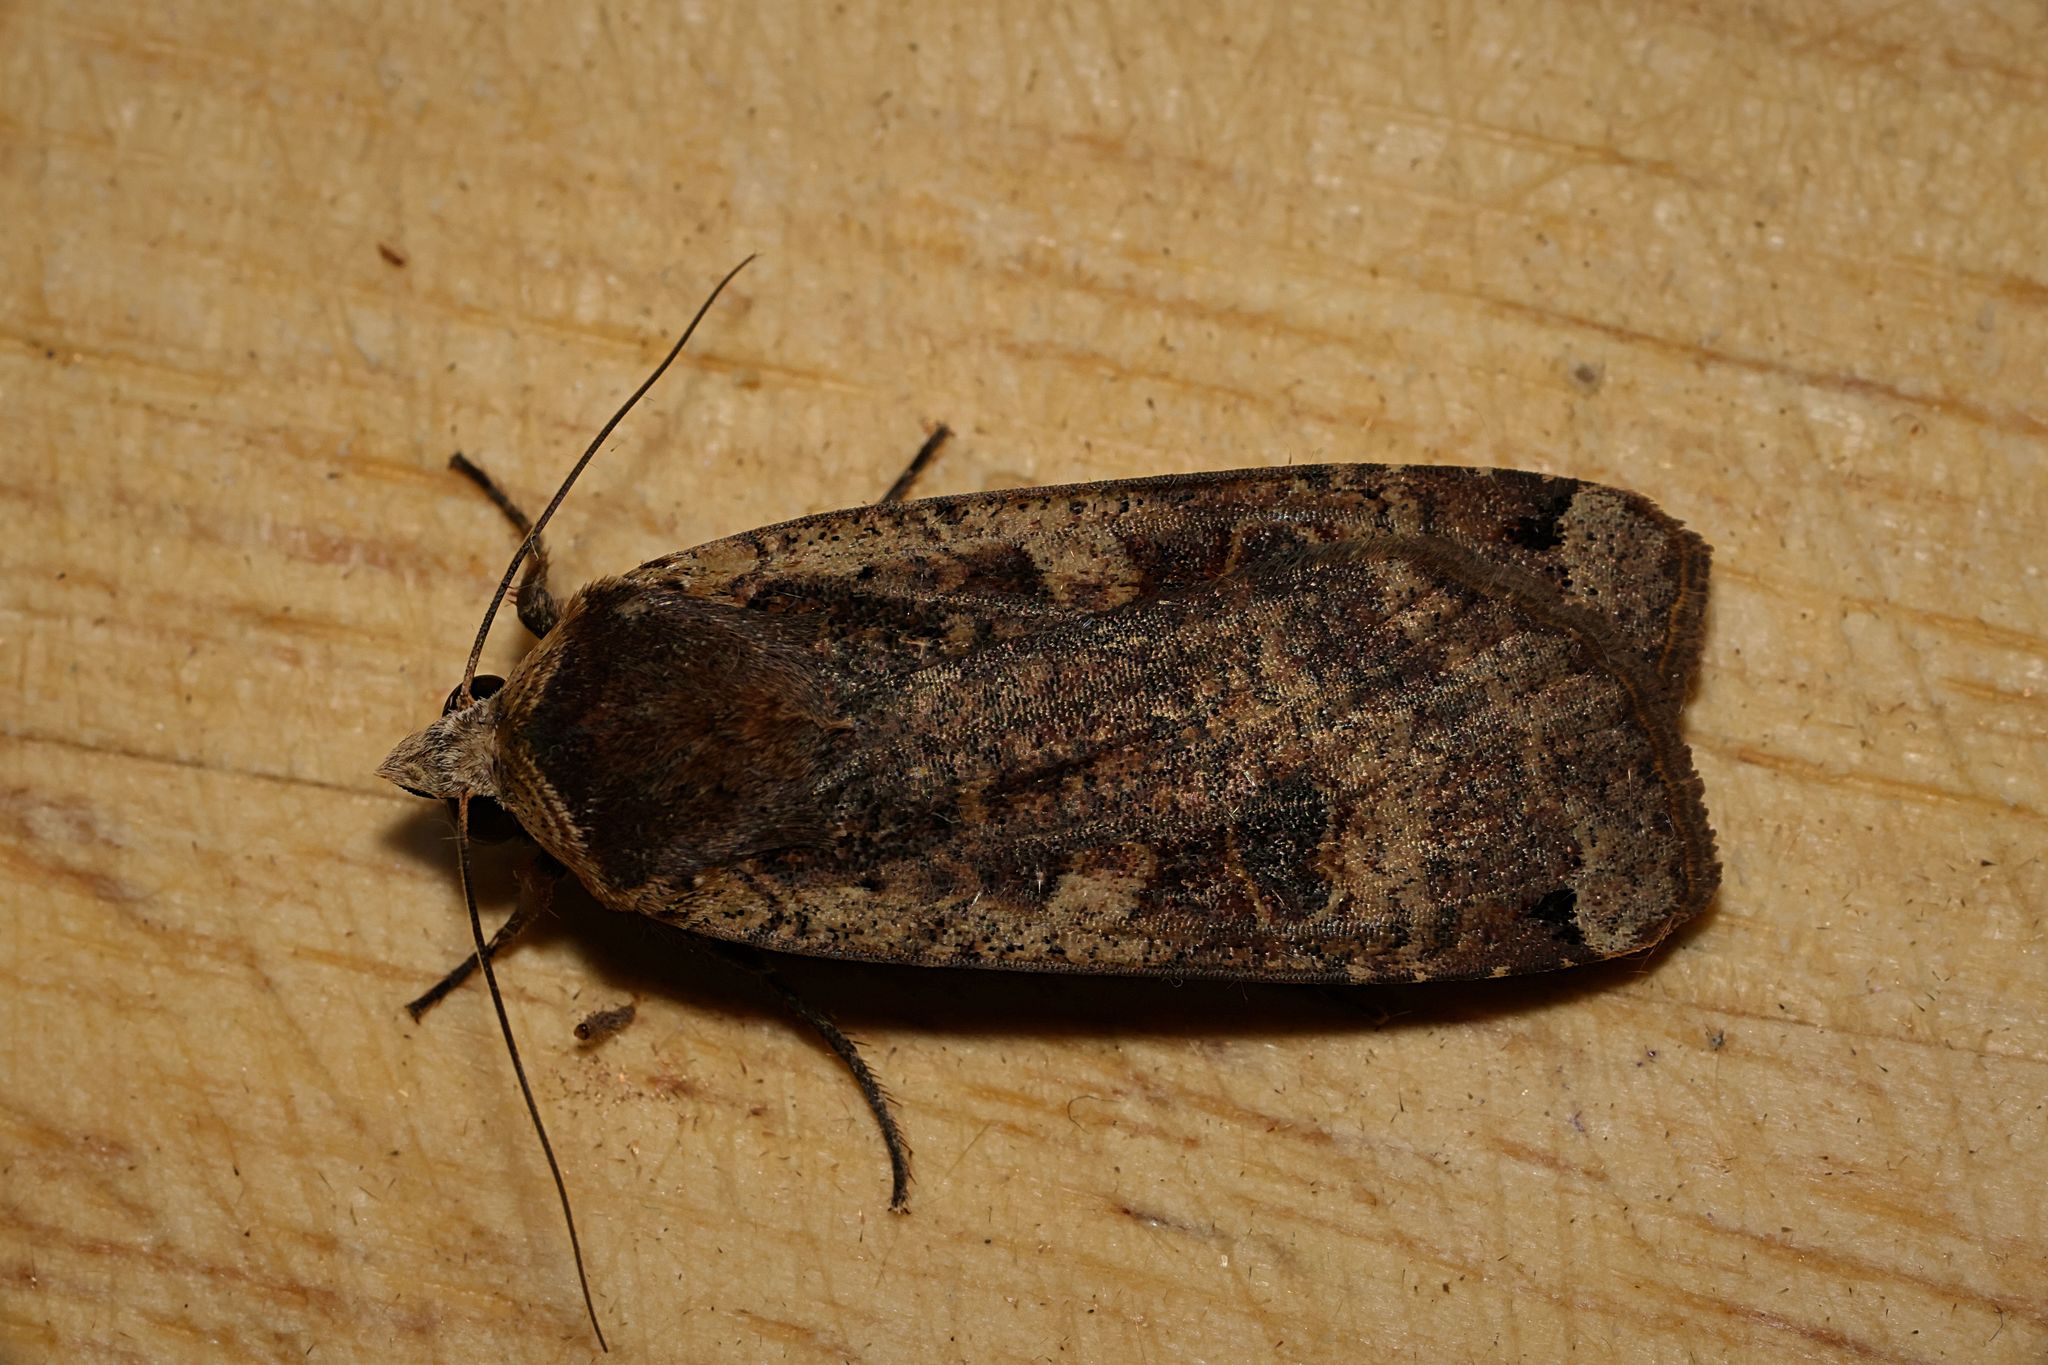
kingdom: Animalia
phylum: Arthropoda
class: Insecta
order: Lepidoptera
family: Noctuidae
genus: Noctua
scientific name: Noctua pronuba
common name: Large yellow underwing
